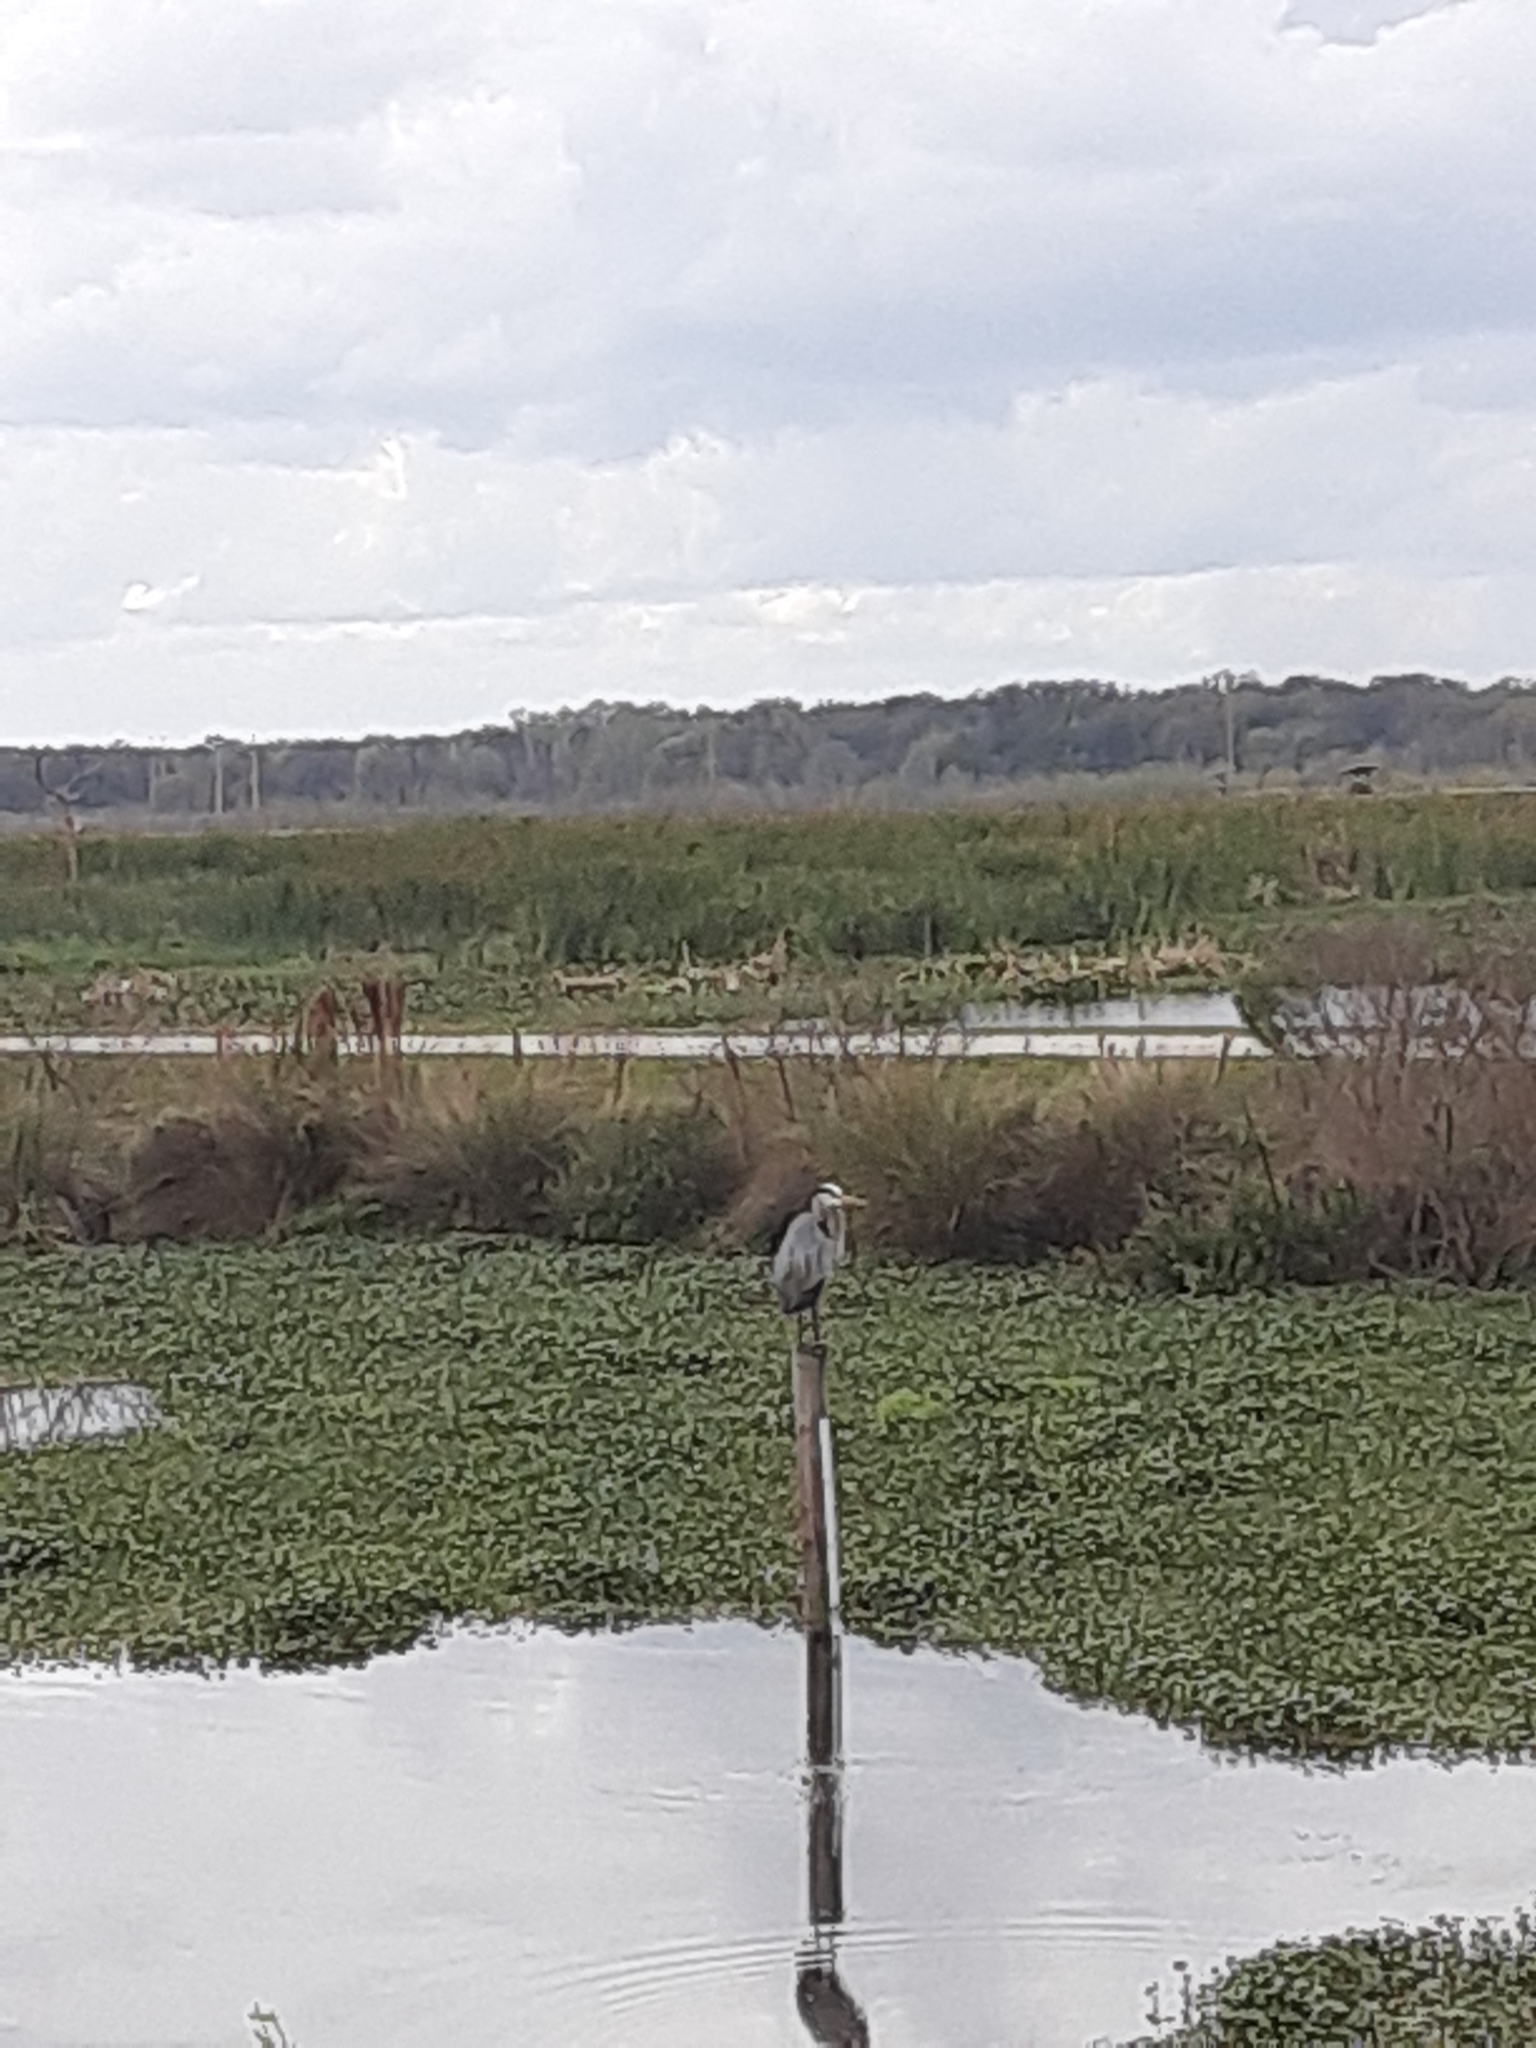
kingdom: Animalia
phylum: Chordata
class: Aves
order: Pelecaniformes
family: Ardeidae
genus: Ardea
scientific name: Ardea herodias
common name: Great blue heron
